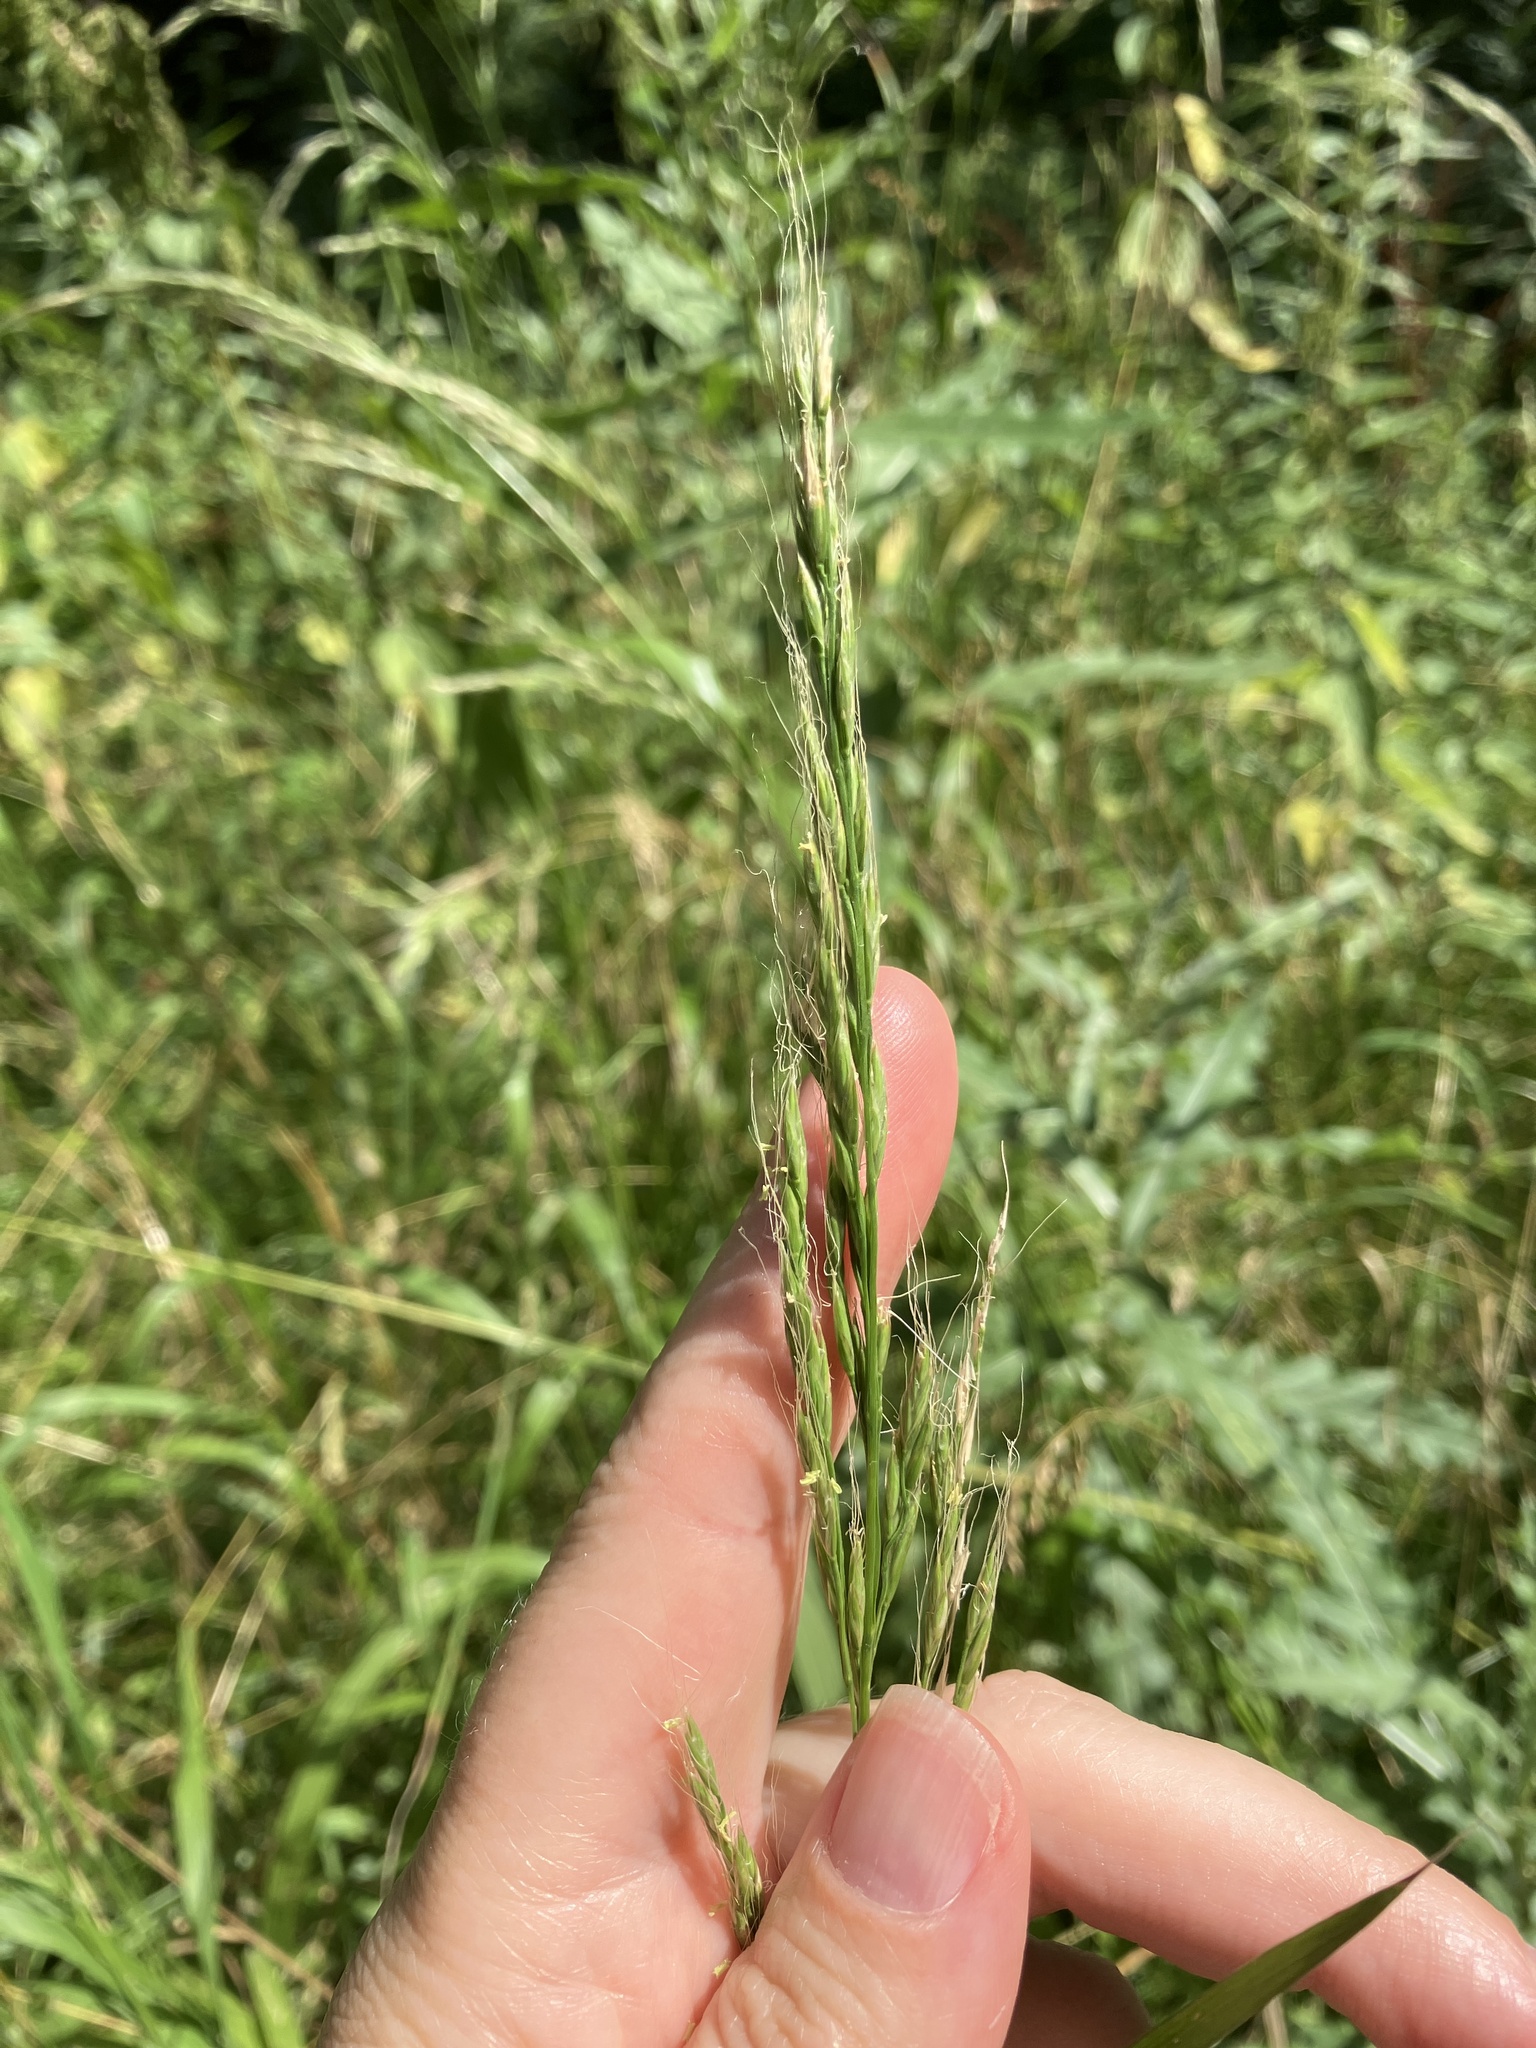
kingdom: Plantae
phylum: Tracheophyta
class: Liliopsida
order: Poales
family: Poaceae
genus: Lolium
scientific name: Lolium giganteum
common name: Giant fescue
